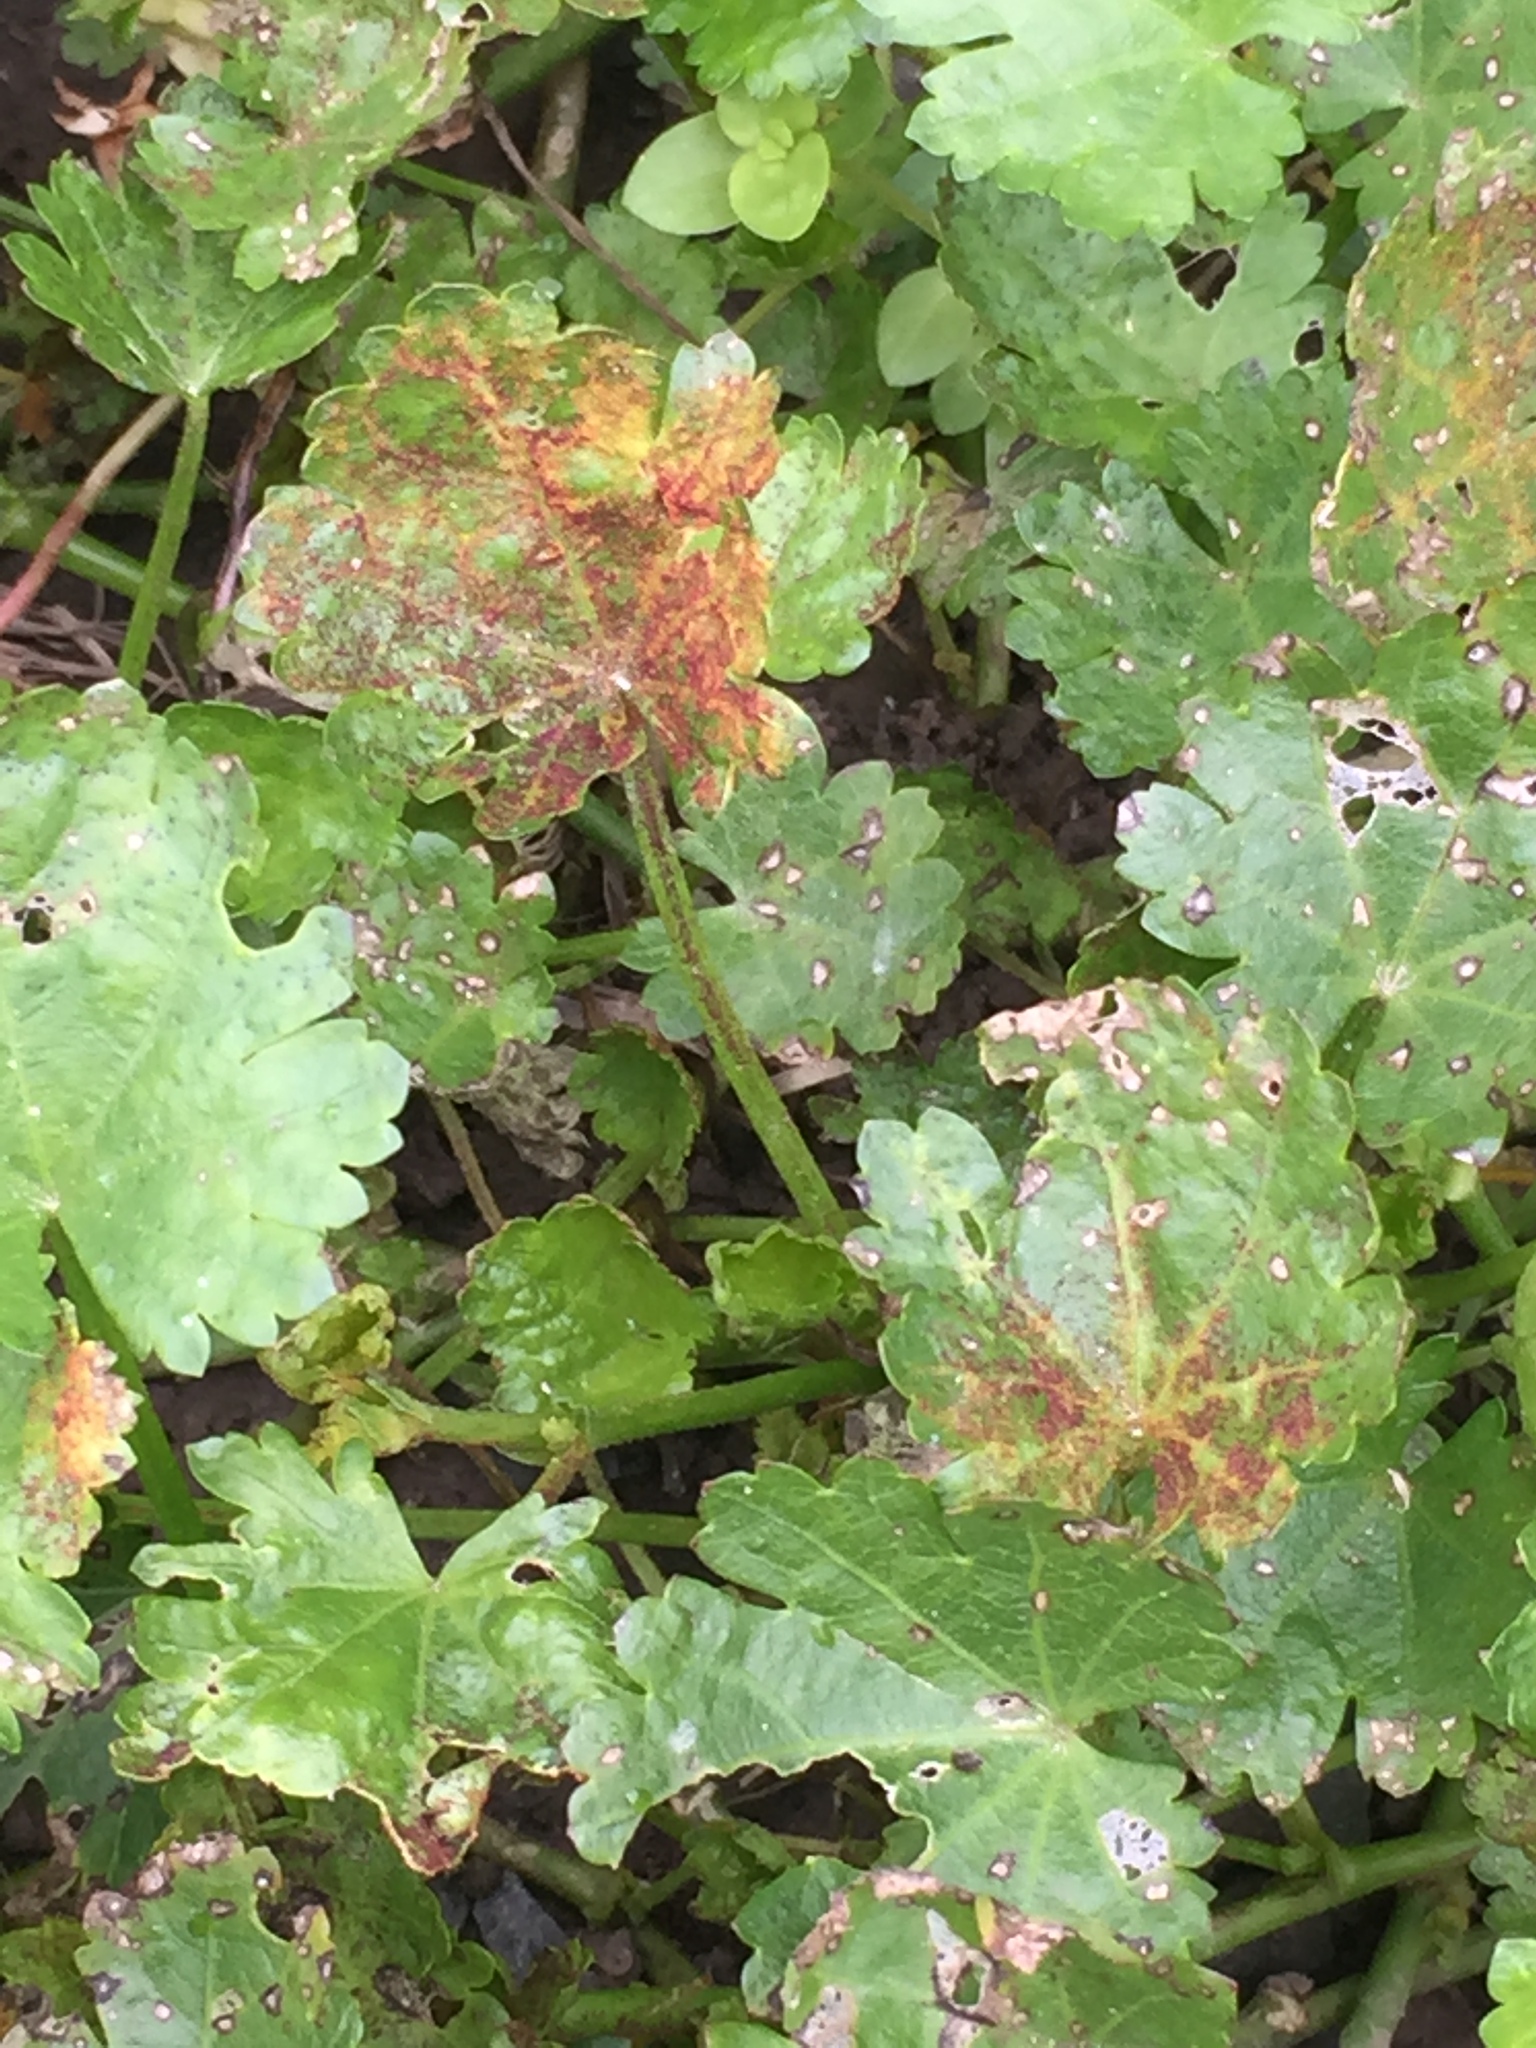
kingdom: Fungi
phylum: Chytridiomycota
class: Chytridiomycetes
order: Chytridiales
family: Synchytriaceae
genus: Synchytrium
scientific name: Synchytrium australe
